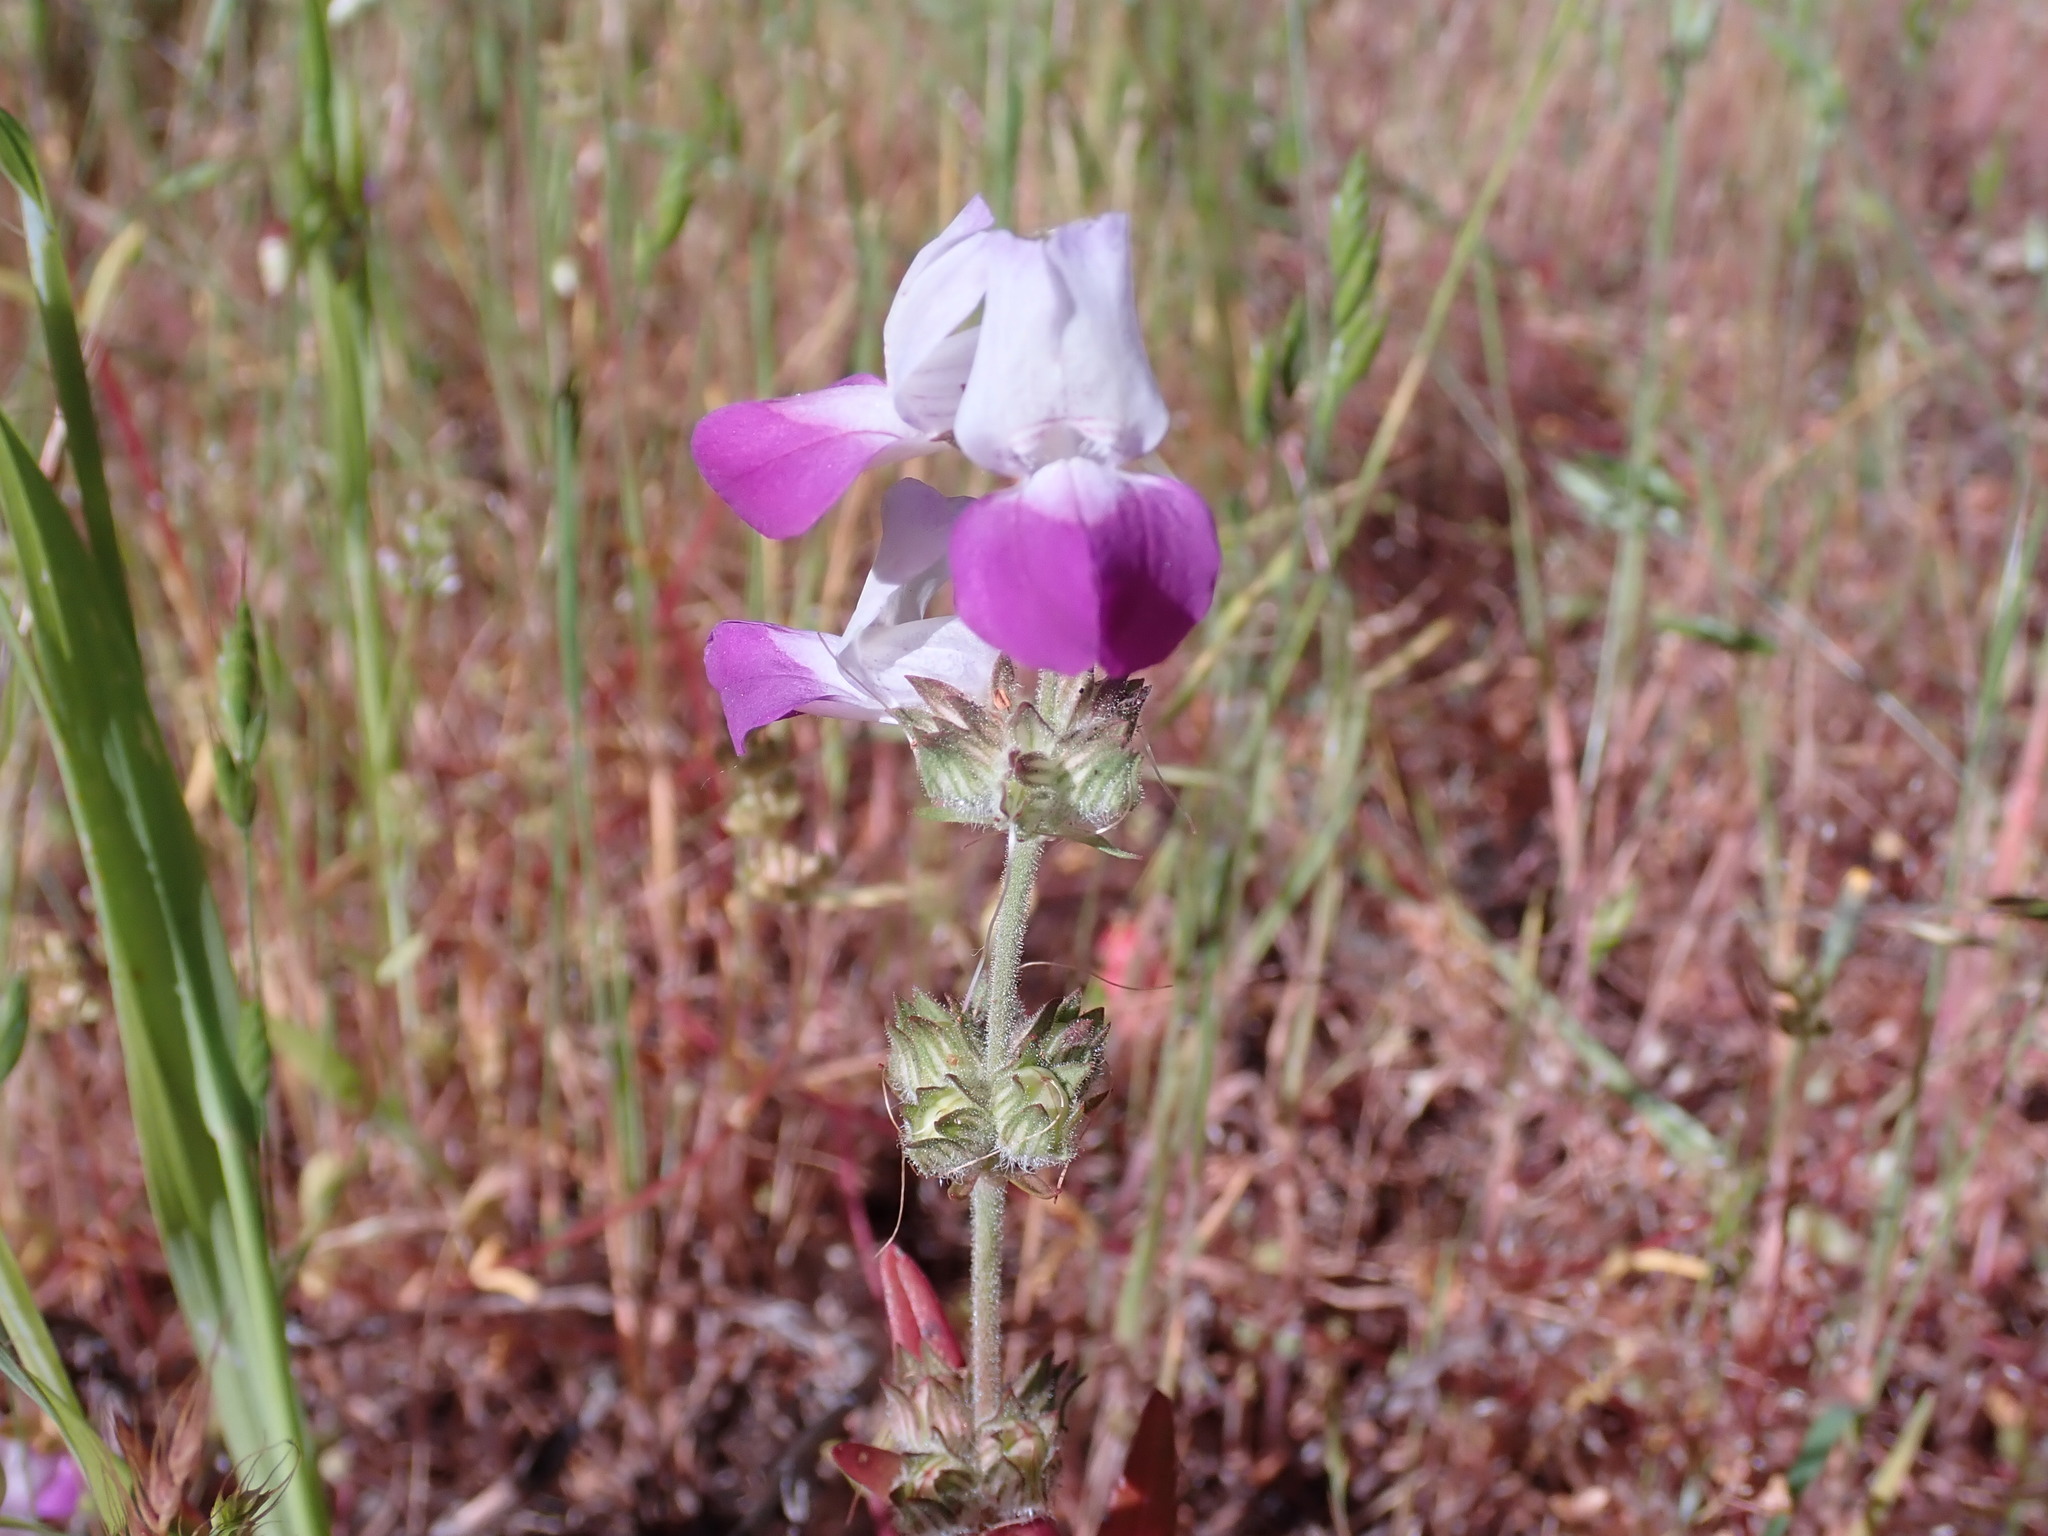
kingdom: Plantae
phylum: Tracheophyta
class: Magnoliopsida
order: Lamiales
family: Plantaginaceae
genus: Collinsia
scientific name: Collinsia heterophylla
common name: Chinese-houses
